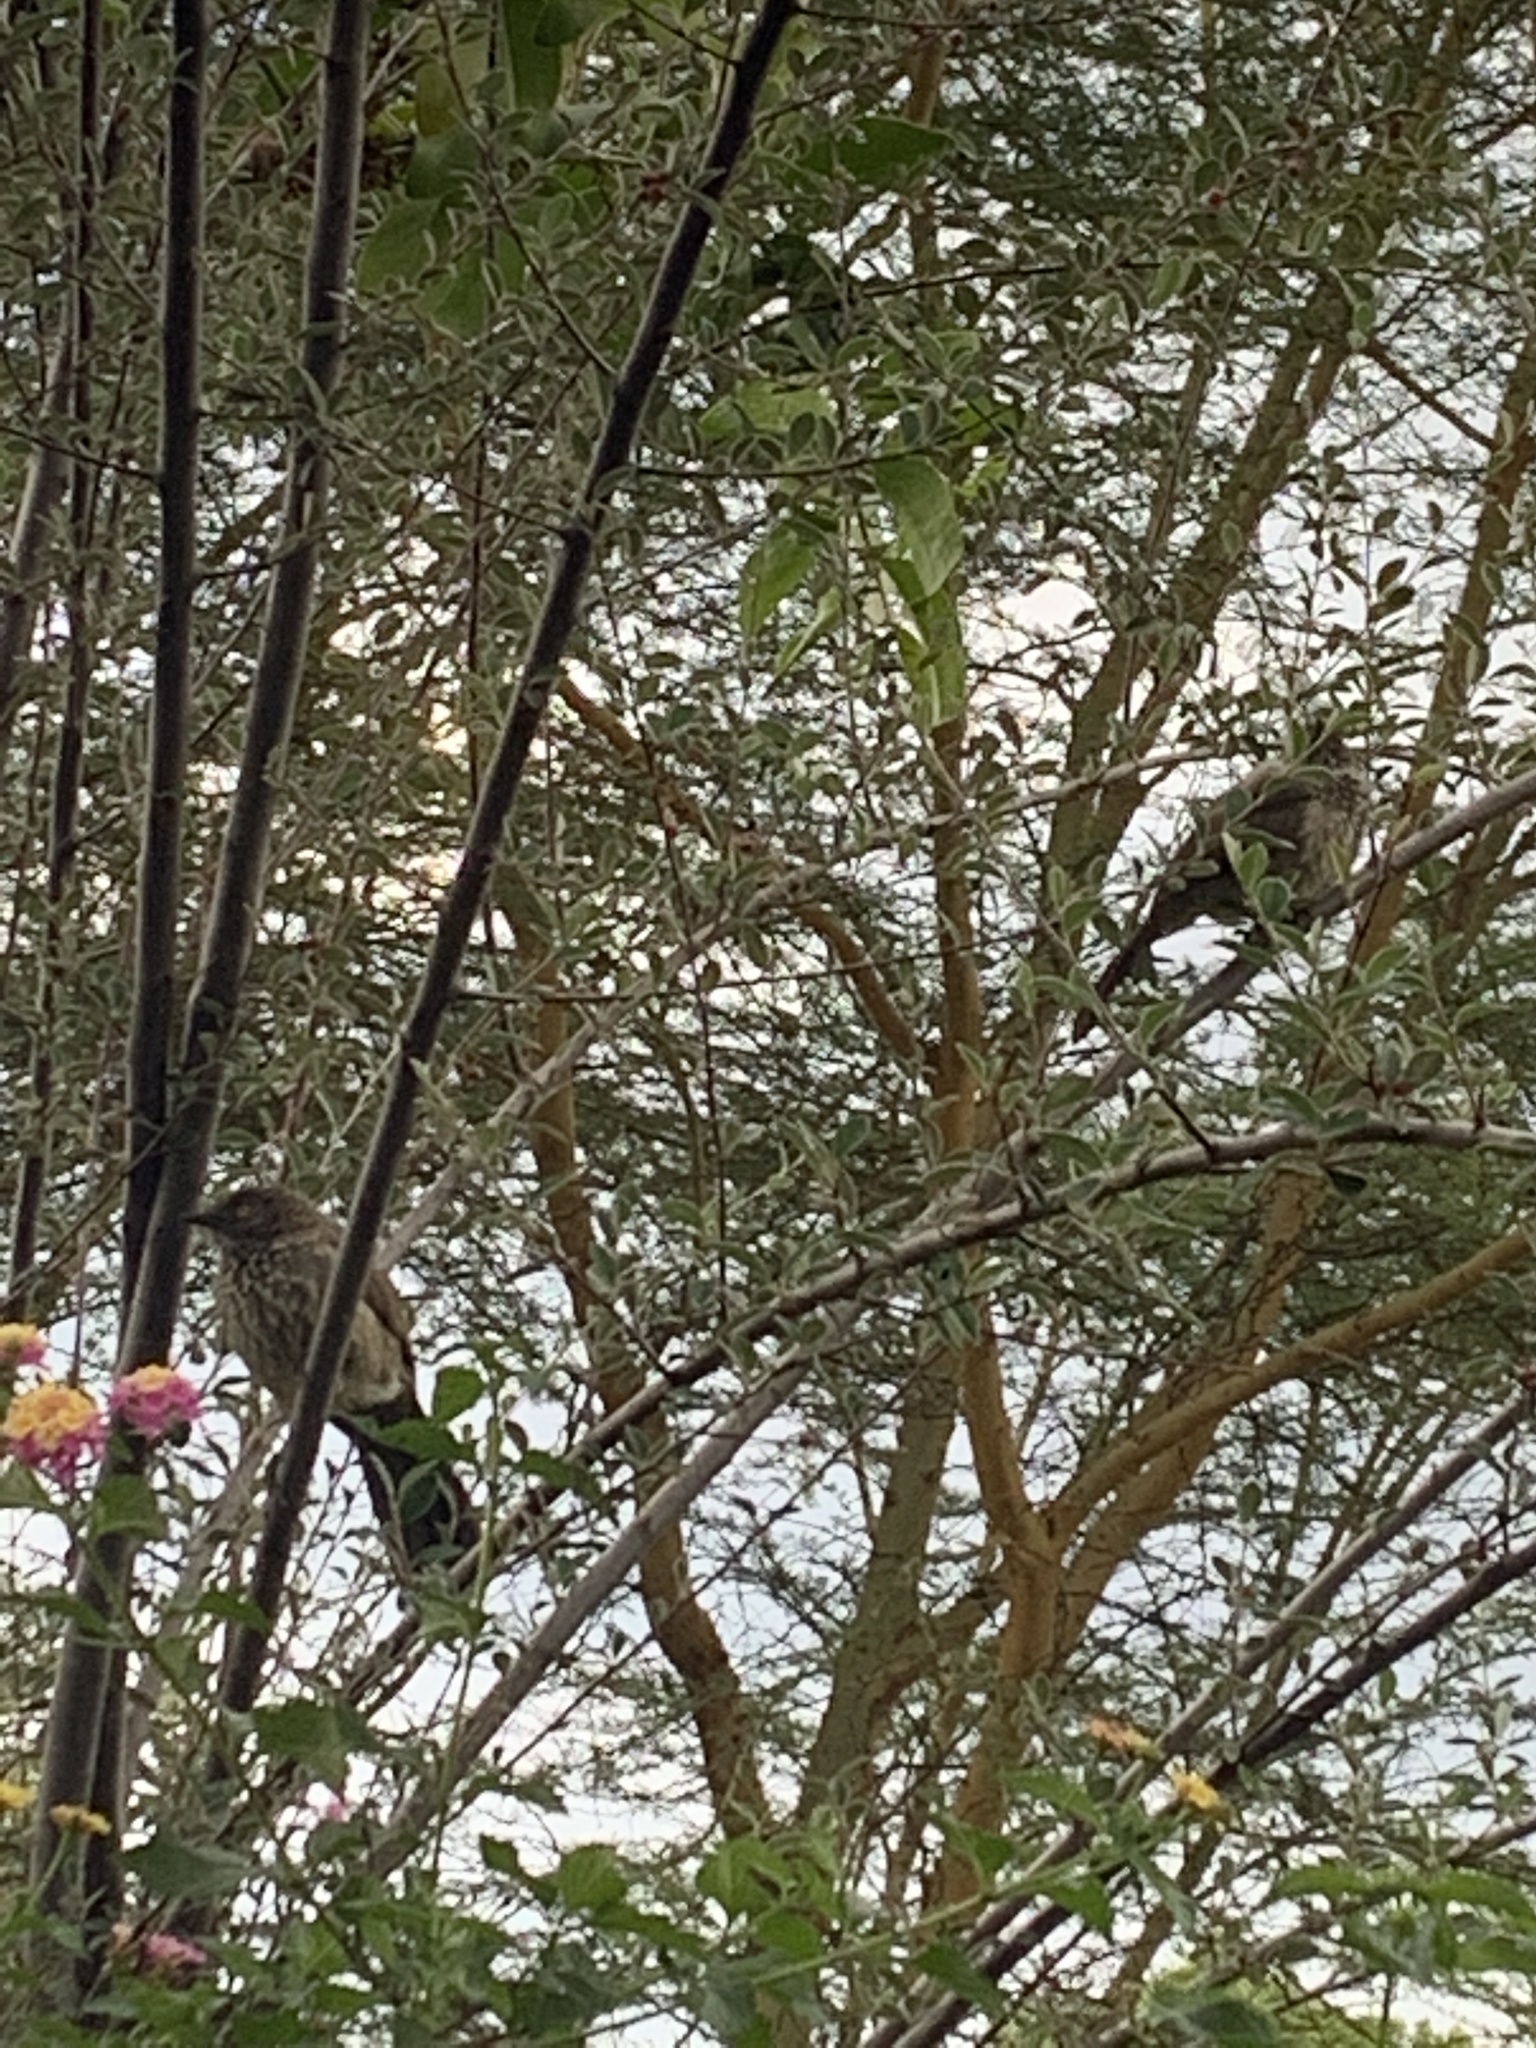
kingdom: Animalia
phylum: Chordata
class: Aves
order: Passeriformes
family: Leiothrichidae
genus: Turdoides
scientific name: Turdoides jardineii
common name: Arrow-marked babbler
